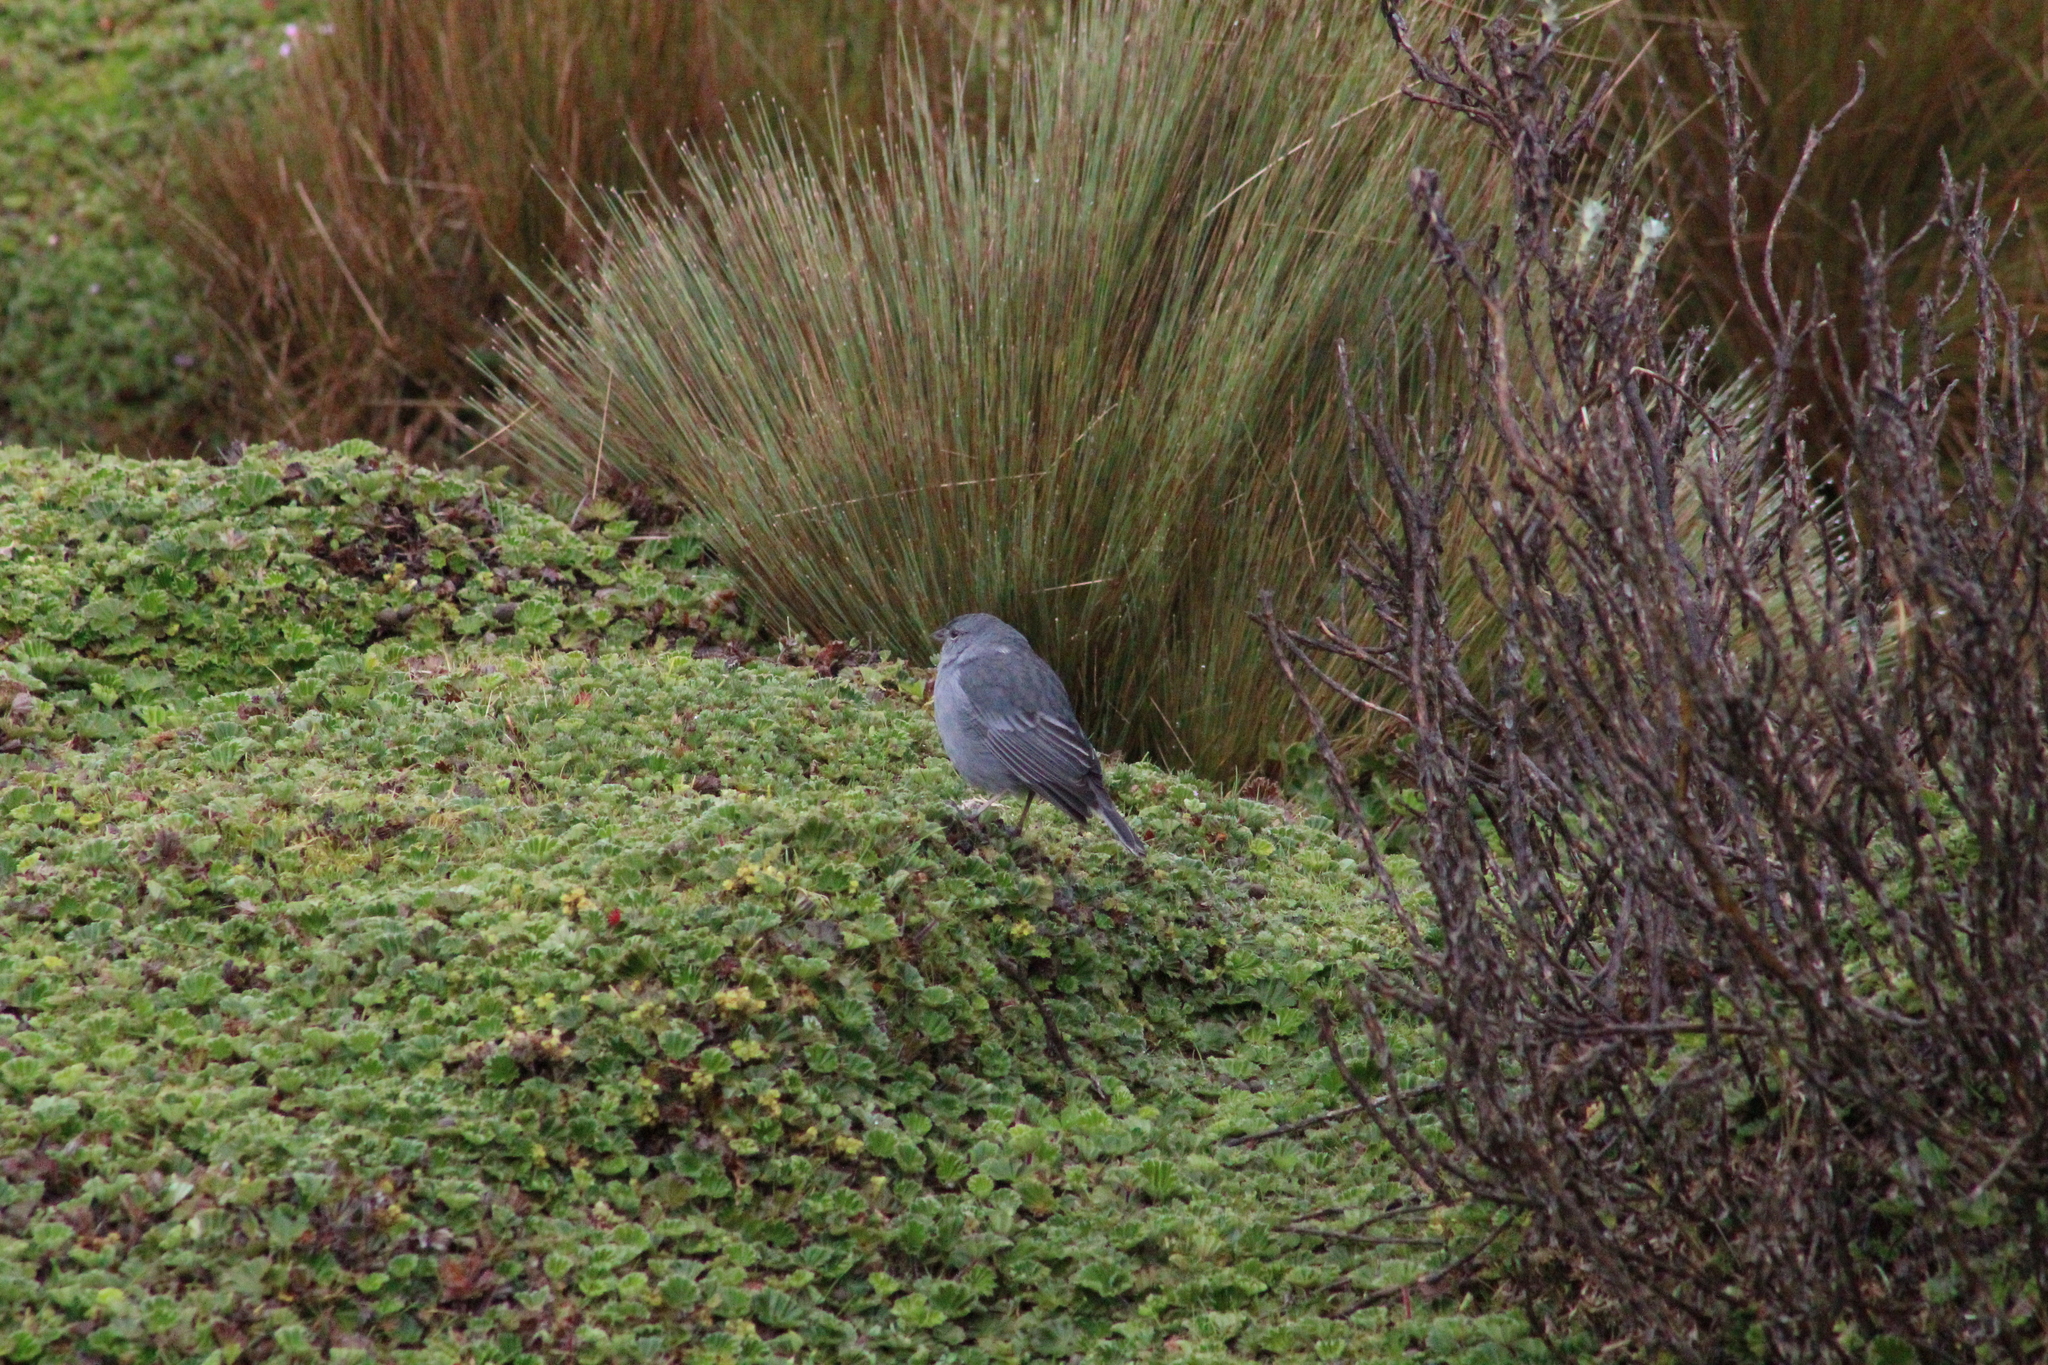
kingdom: Animalia
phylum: Chordata
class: Aves
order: Passeriformes
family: Thraupidae
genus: Geospizopsis
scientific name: Geospizopsis unicolor
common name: Plumbeous sierra-finch
